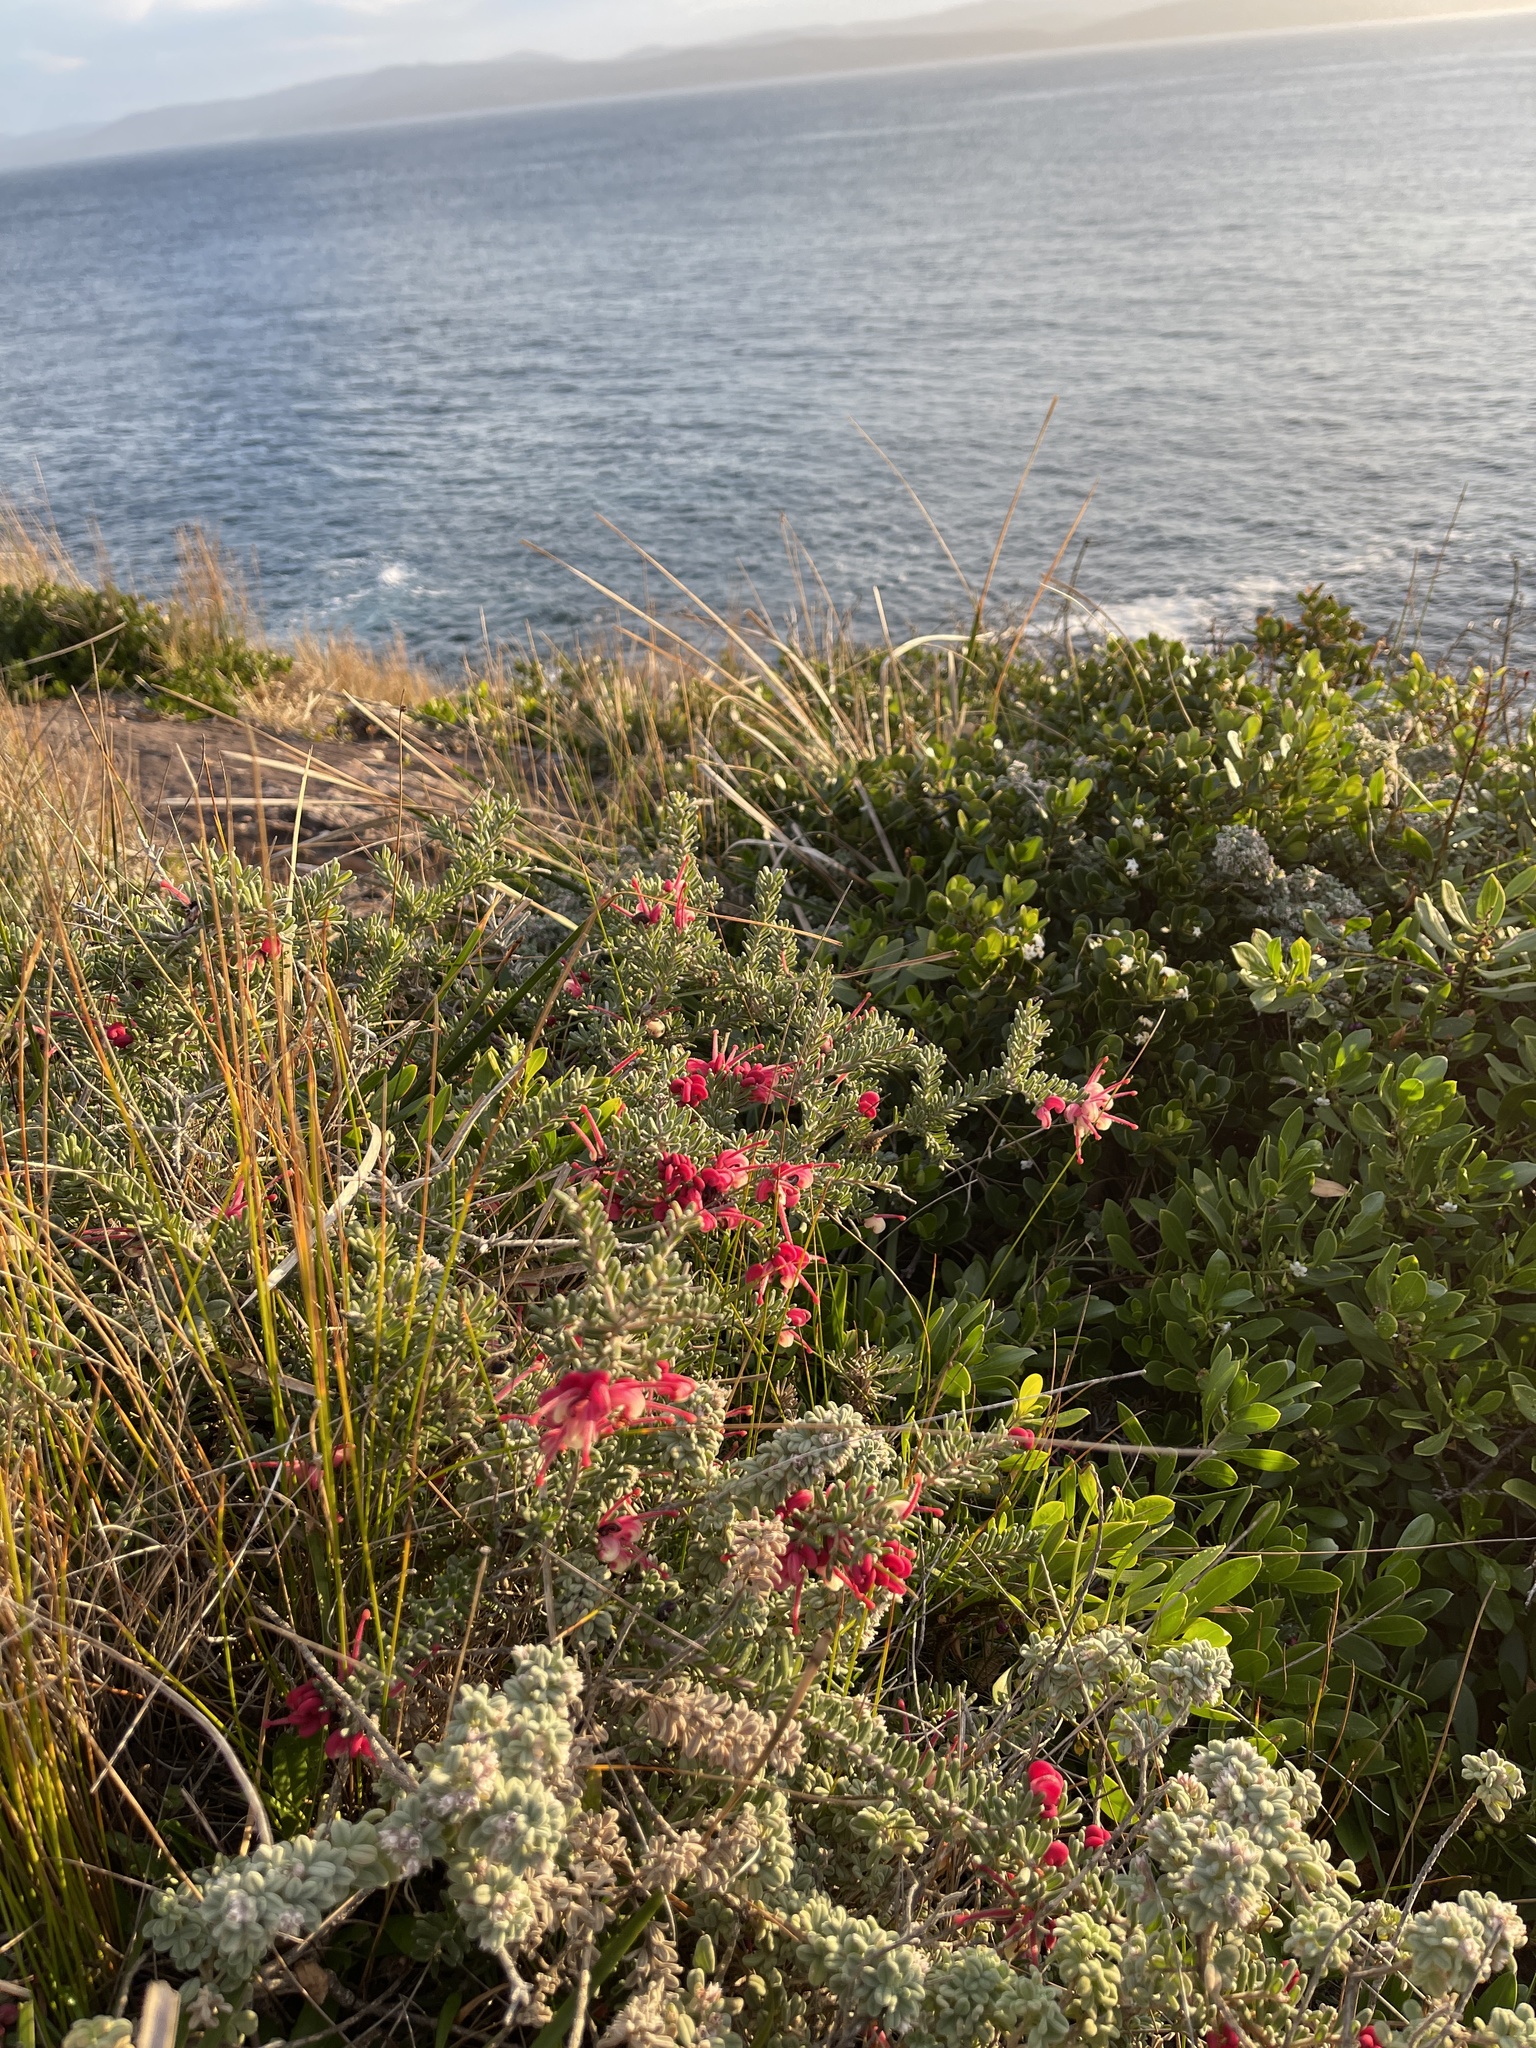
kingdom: Plantae
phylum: Tracheophyta
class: Magnoliopsida
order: Proteales
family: Proteaceae
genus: Grevillea
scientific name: Grevillea lanigera
